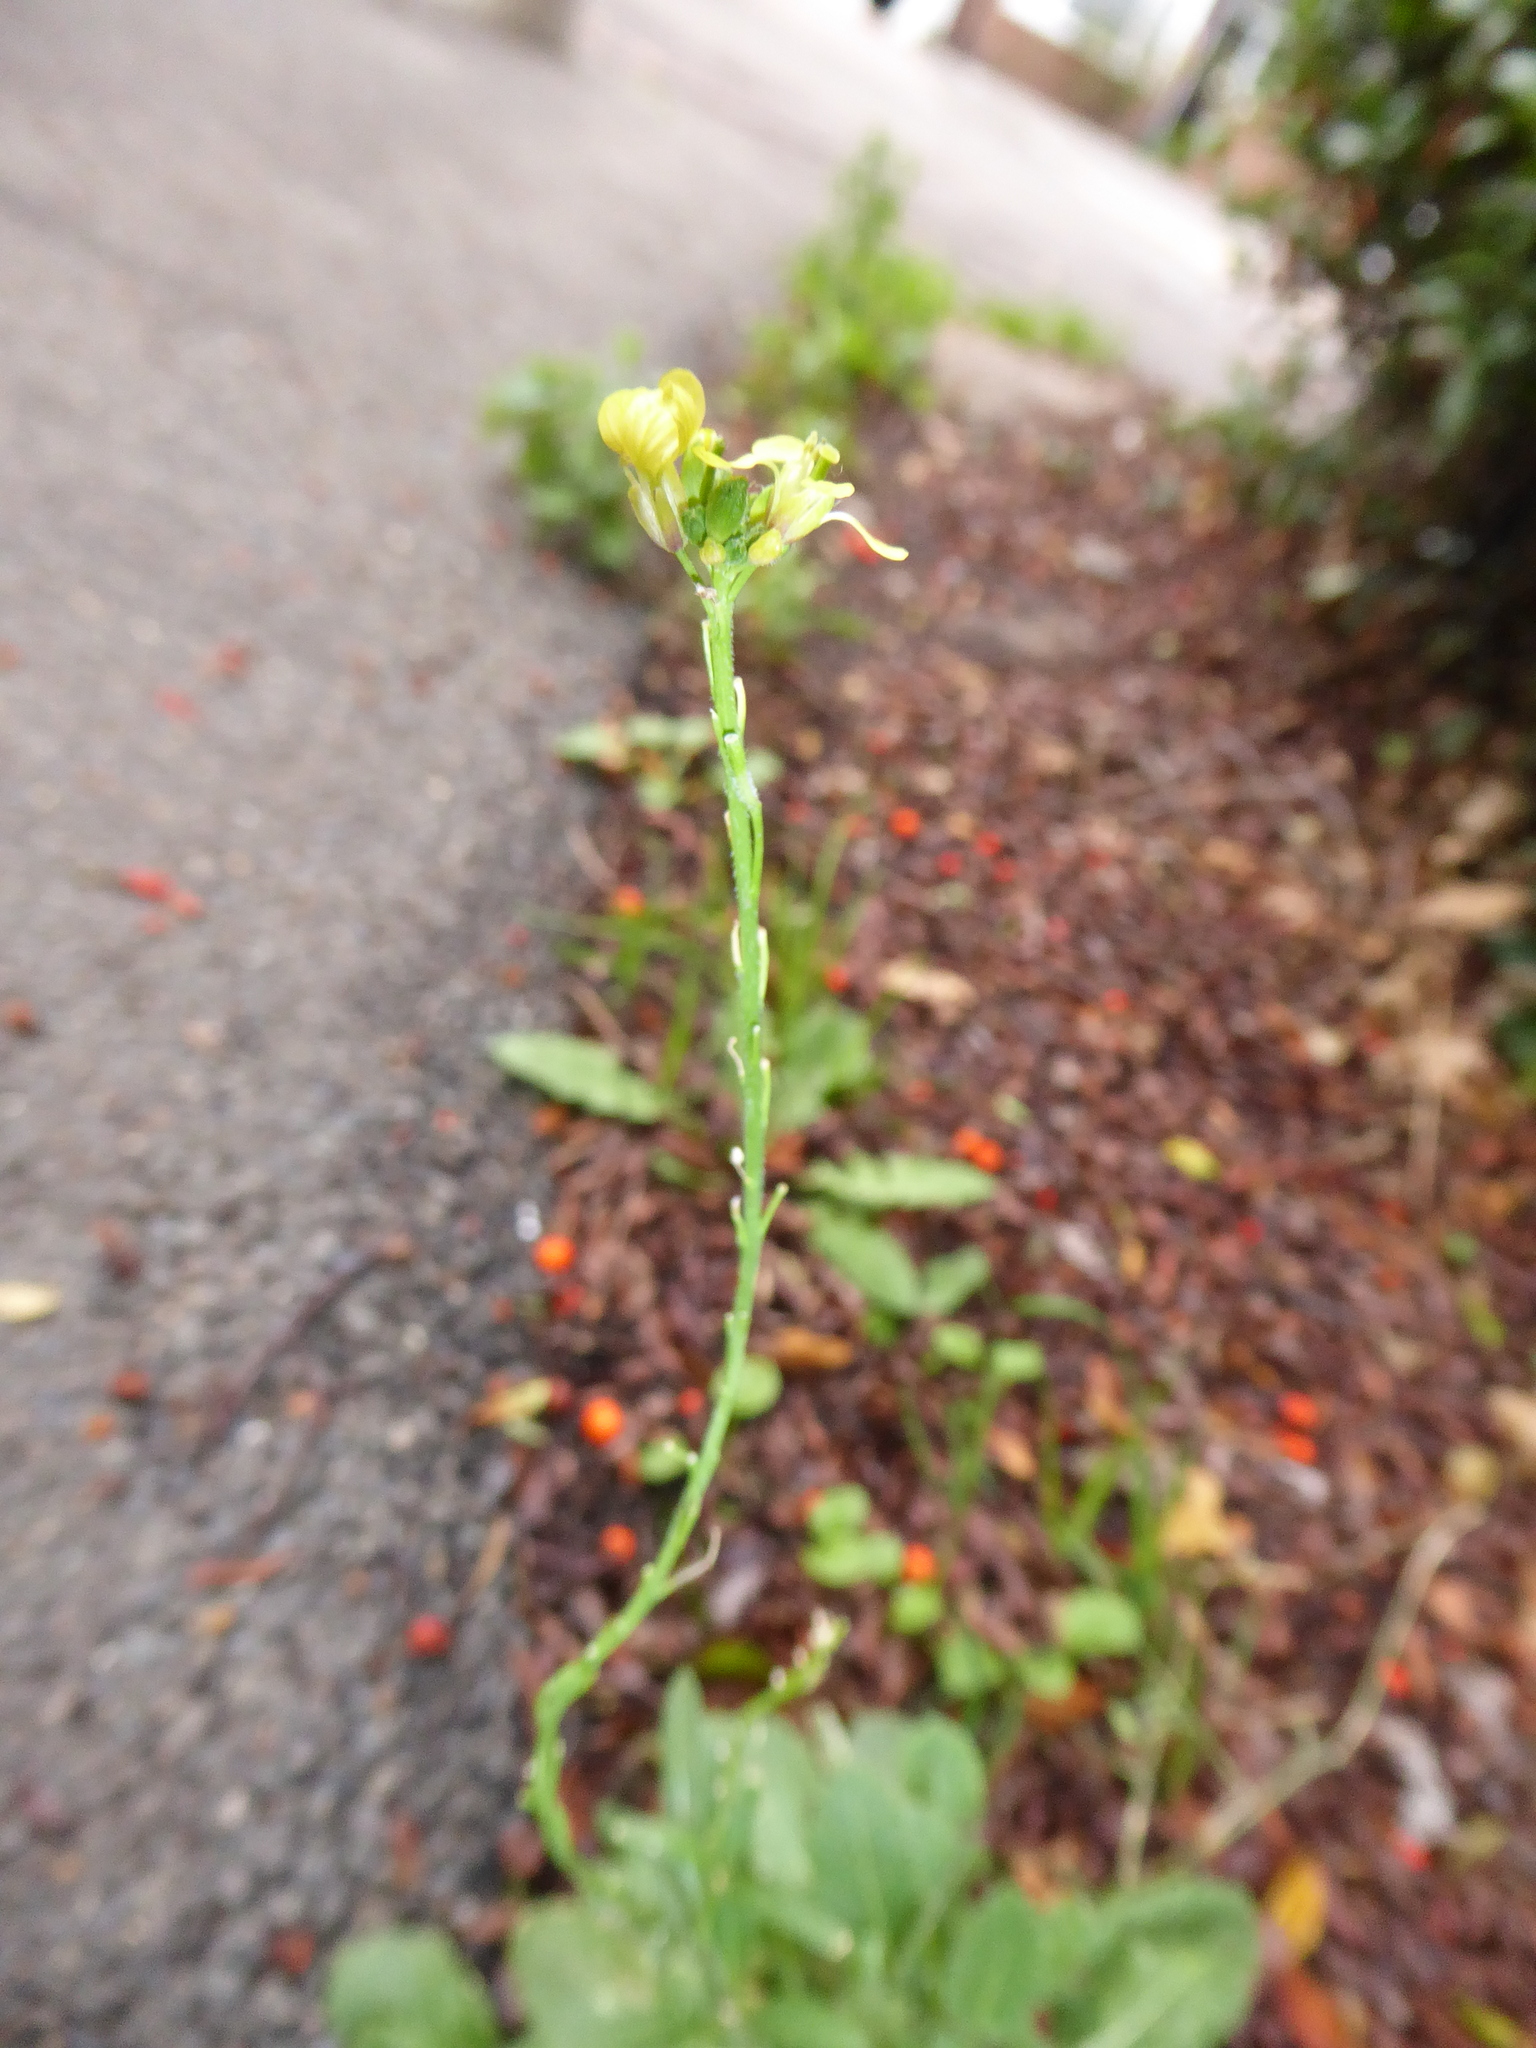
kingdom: Plantae
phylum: Tracheophyta
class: Magnoliopsida
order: Brassicales
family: Brassicaceae
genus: Hirschfeldia
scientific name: Hirschfeldia incana
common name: Hoary mustard
